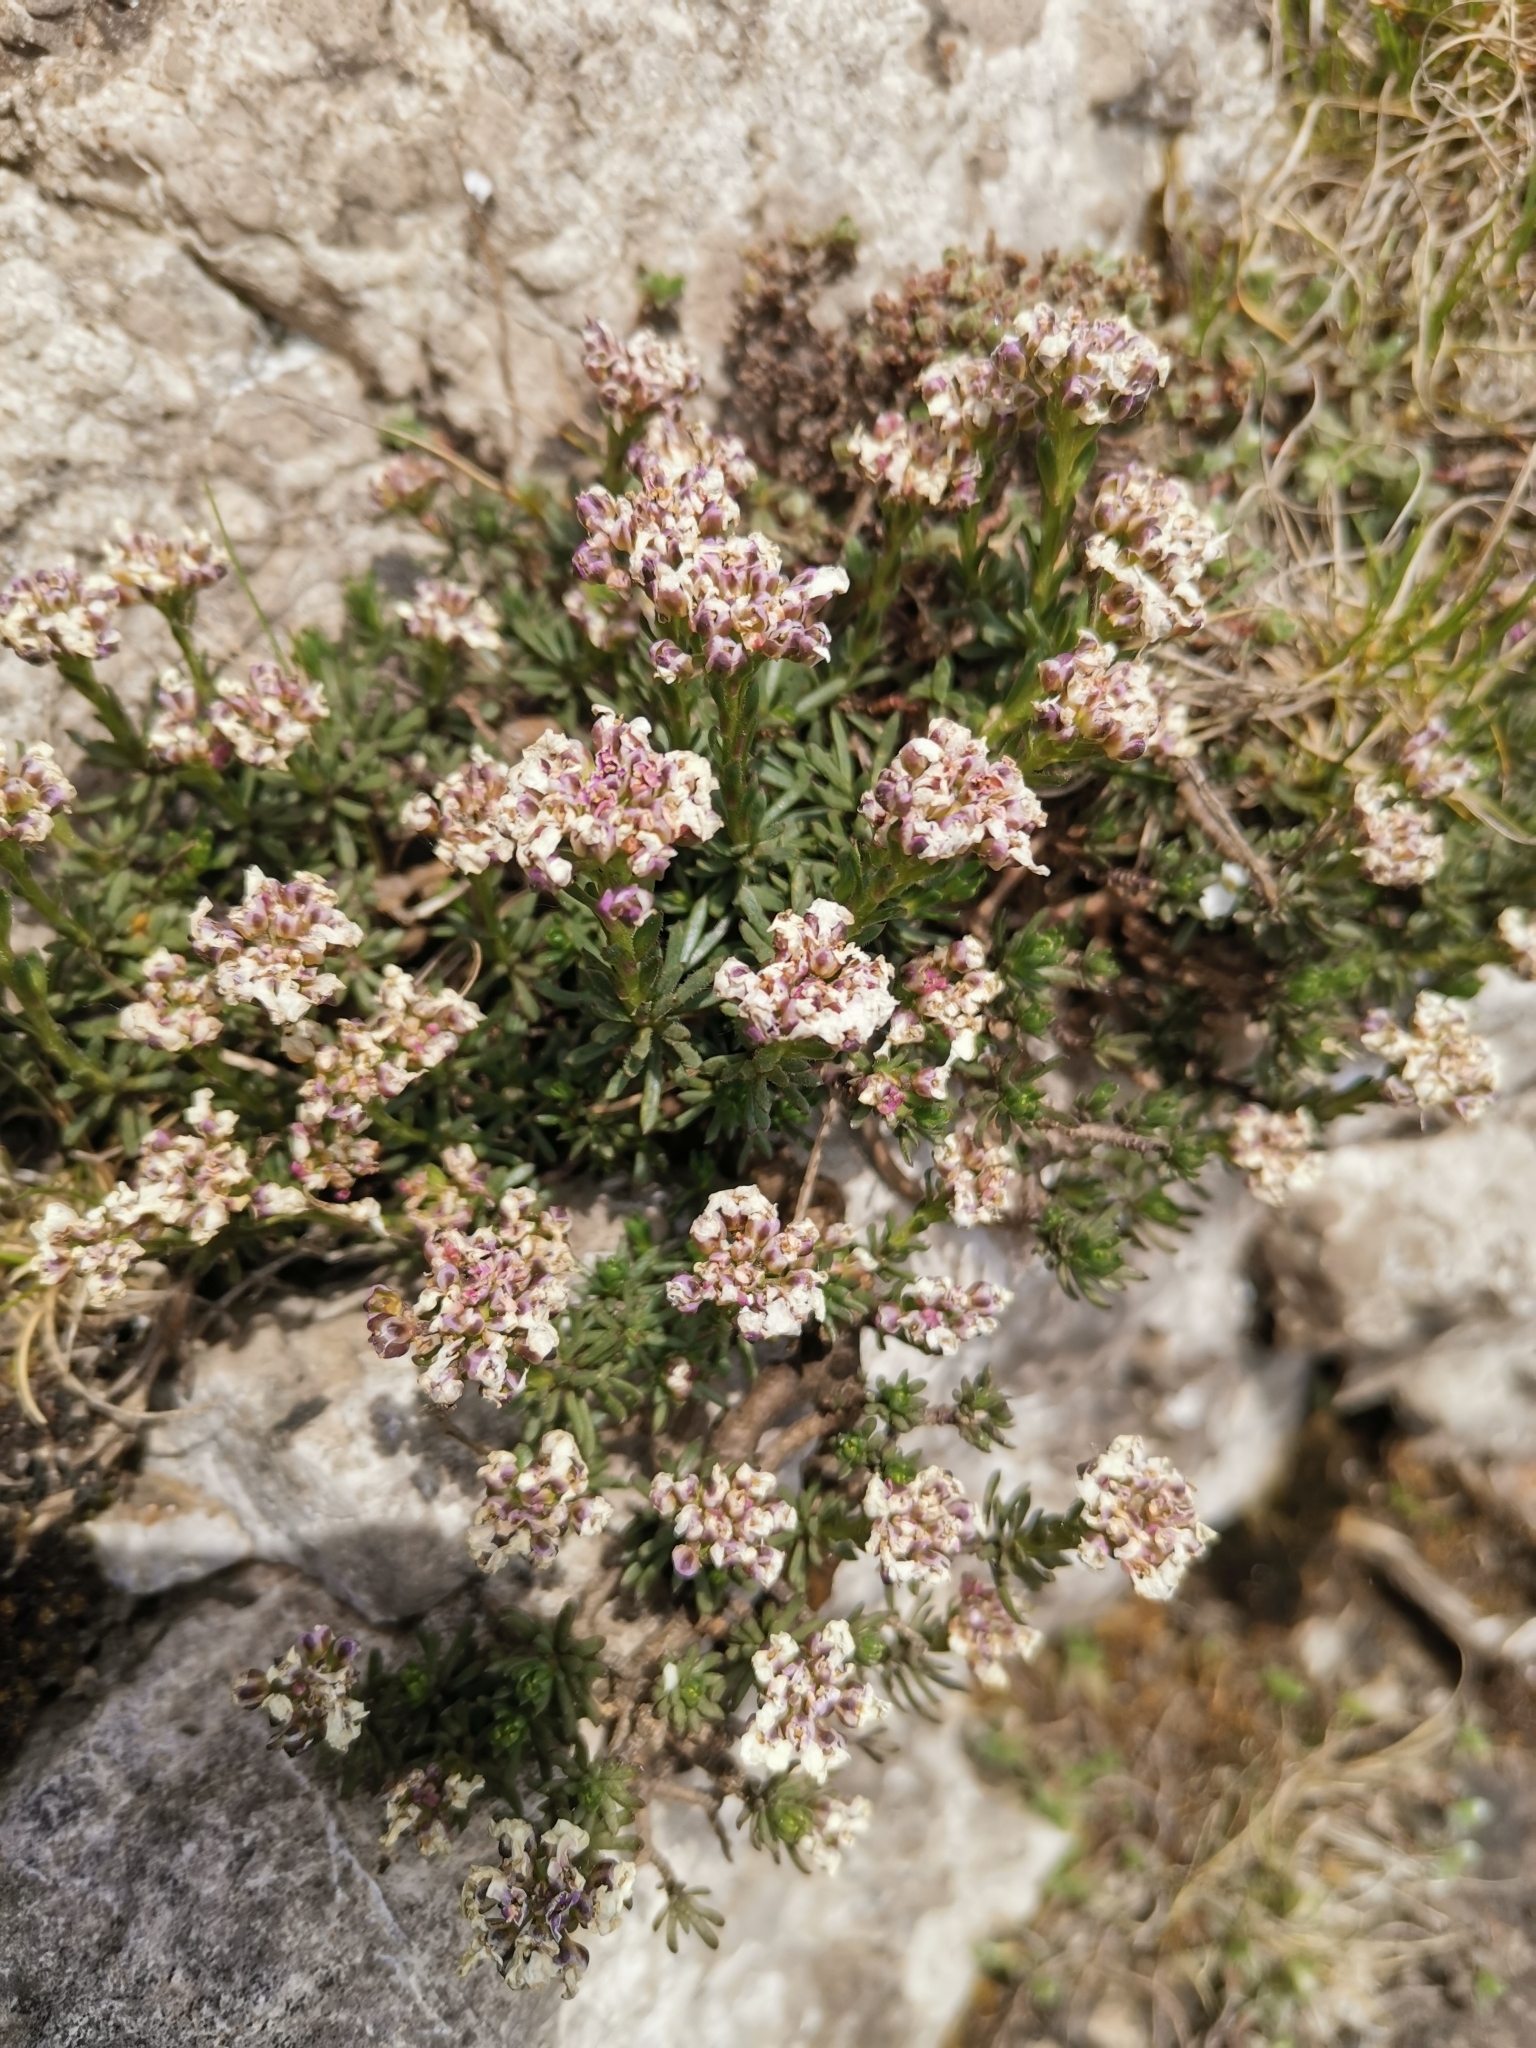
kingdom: Plantae
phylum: Tracheophyta
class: Magnoliopsida
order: Brassicales
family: Brassicaceae
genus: Iberis
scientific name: Iberis saxatilis
